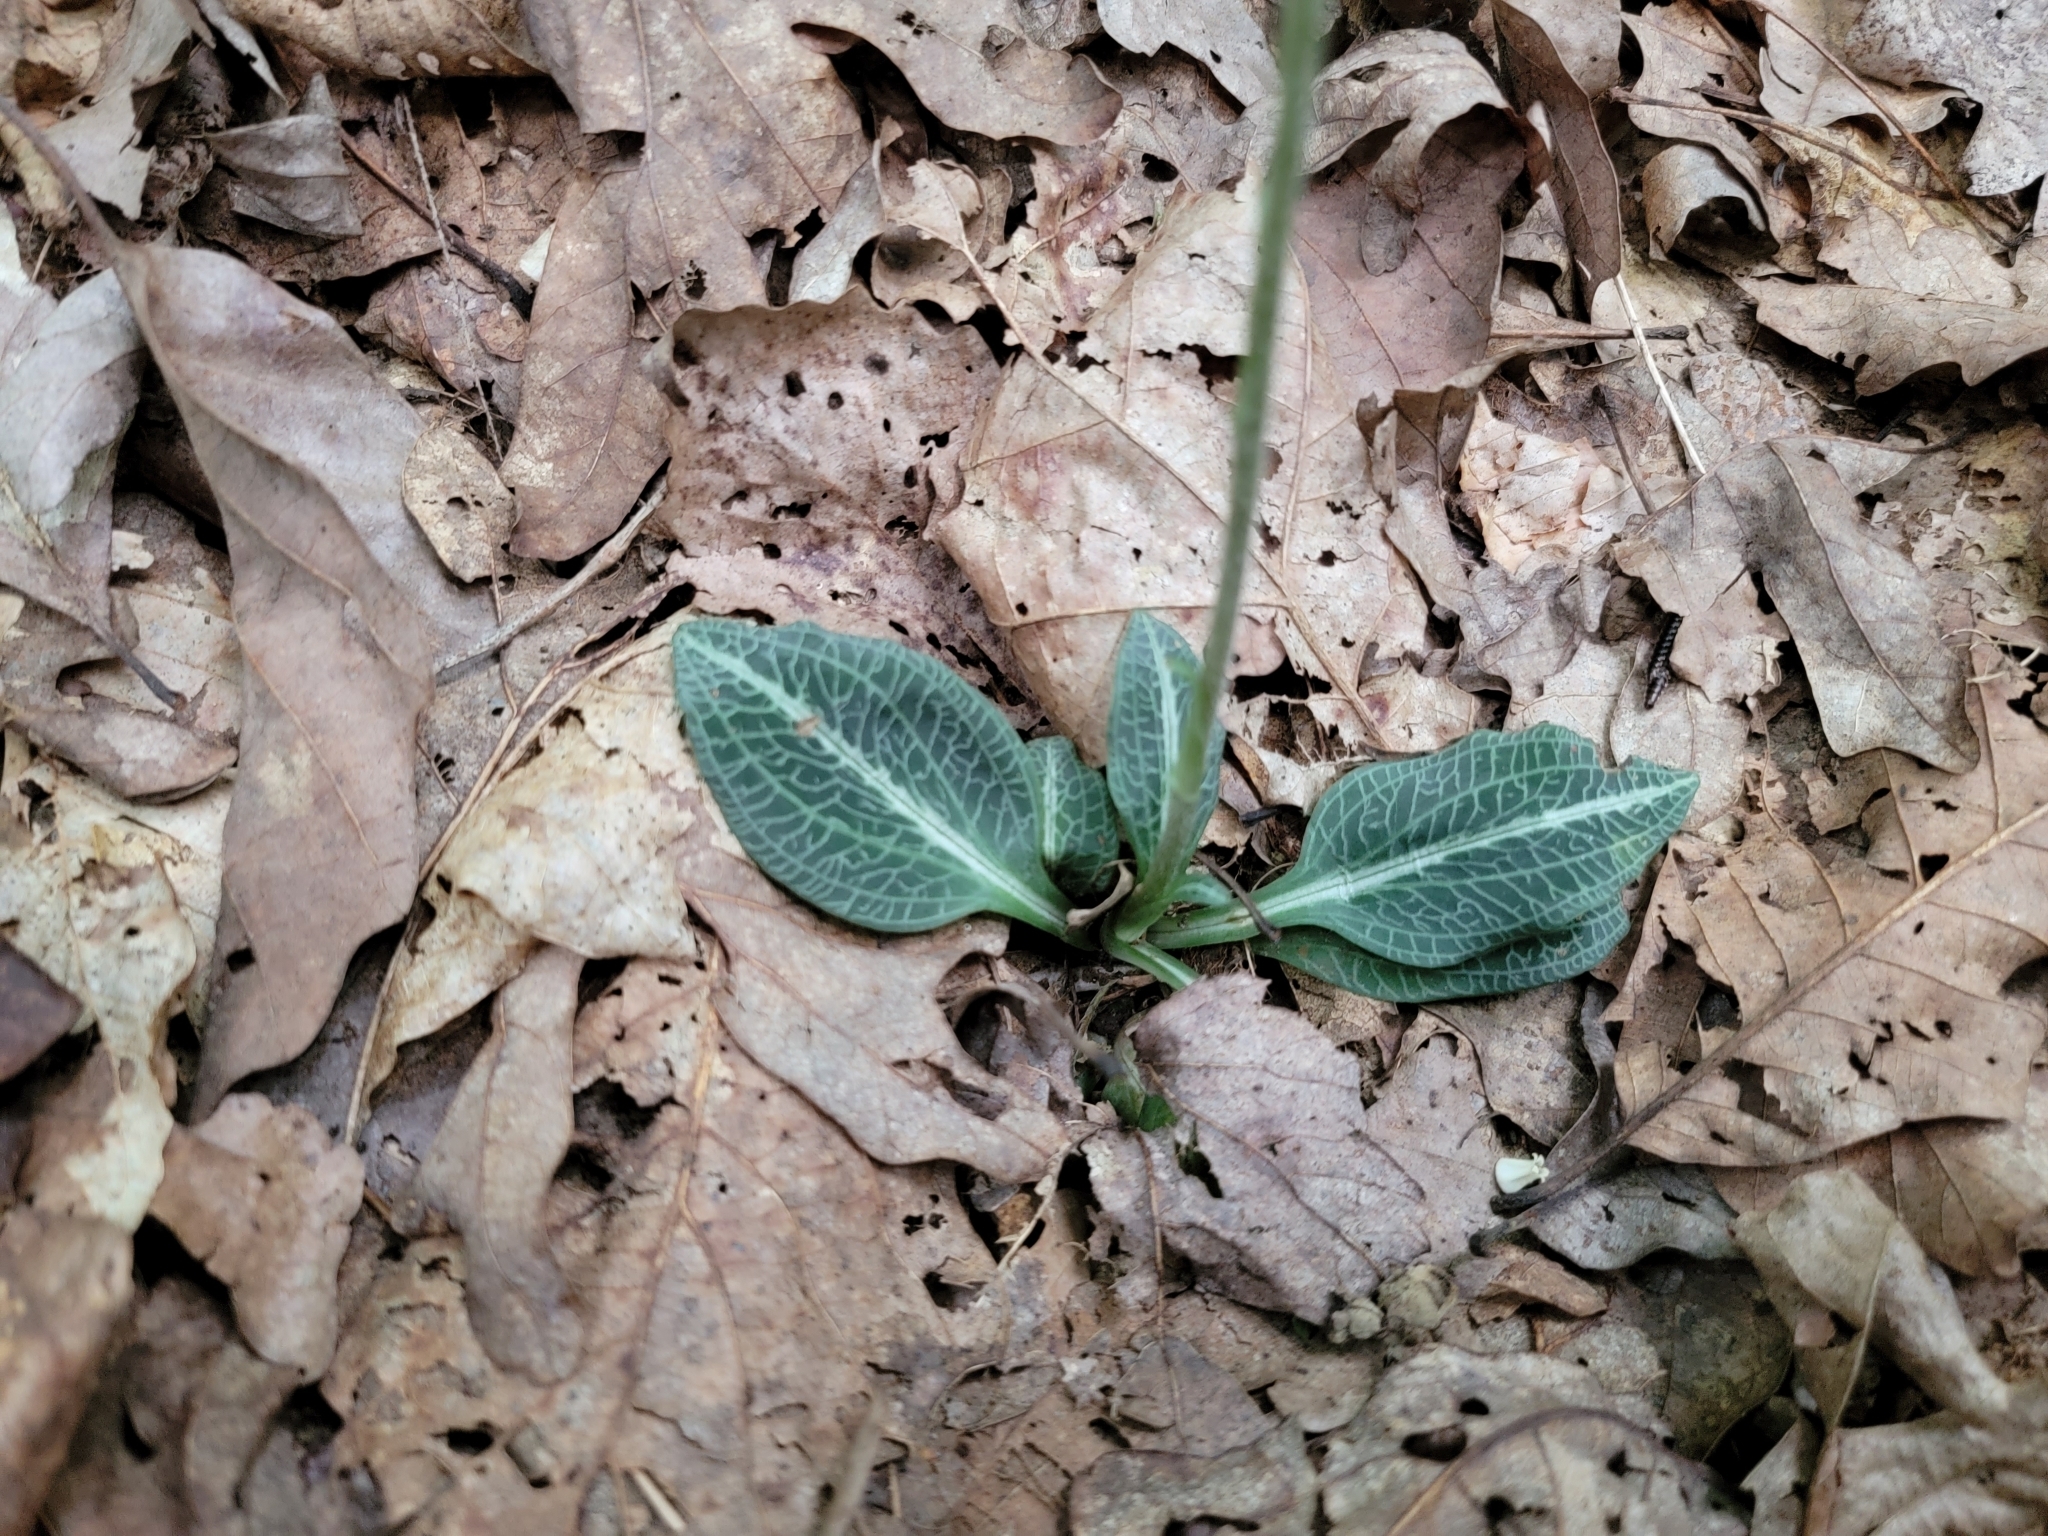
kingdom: Plantae
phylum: Tracheophyta
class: Liliopsida
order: Asparagales
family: Orchidaceae
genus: Goodyera
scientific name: Goodyera pubescens
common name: Downy rattlesnake-plantain
